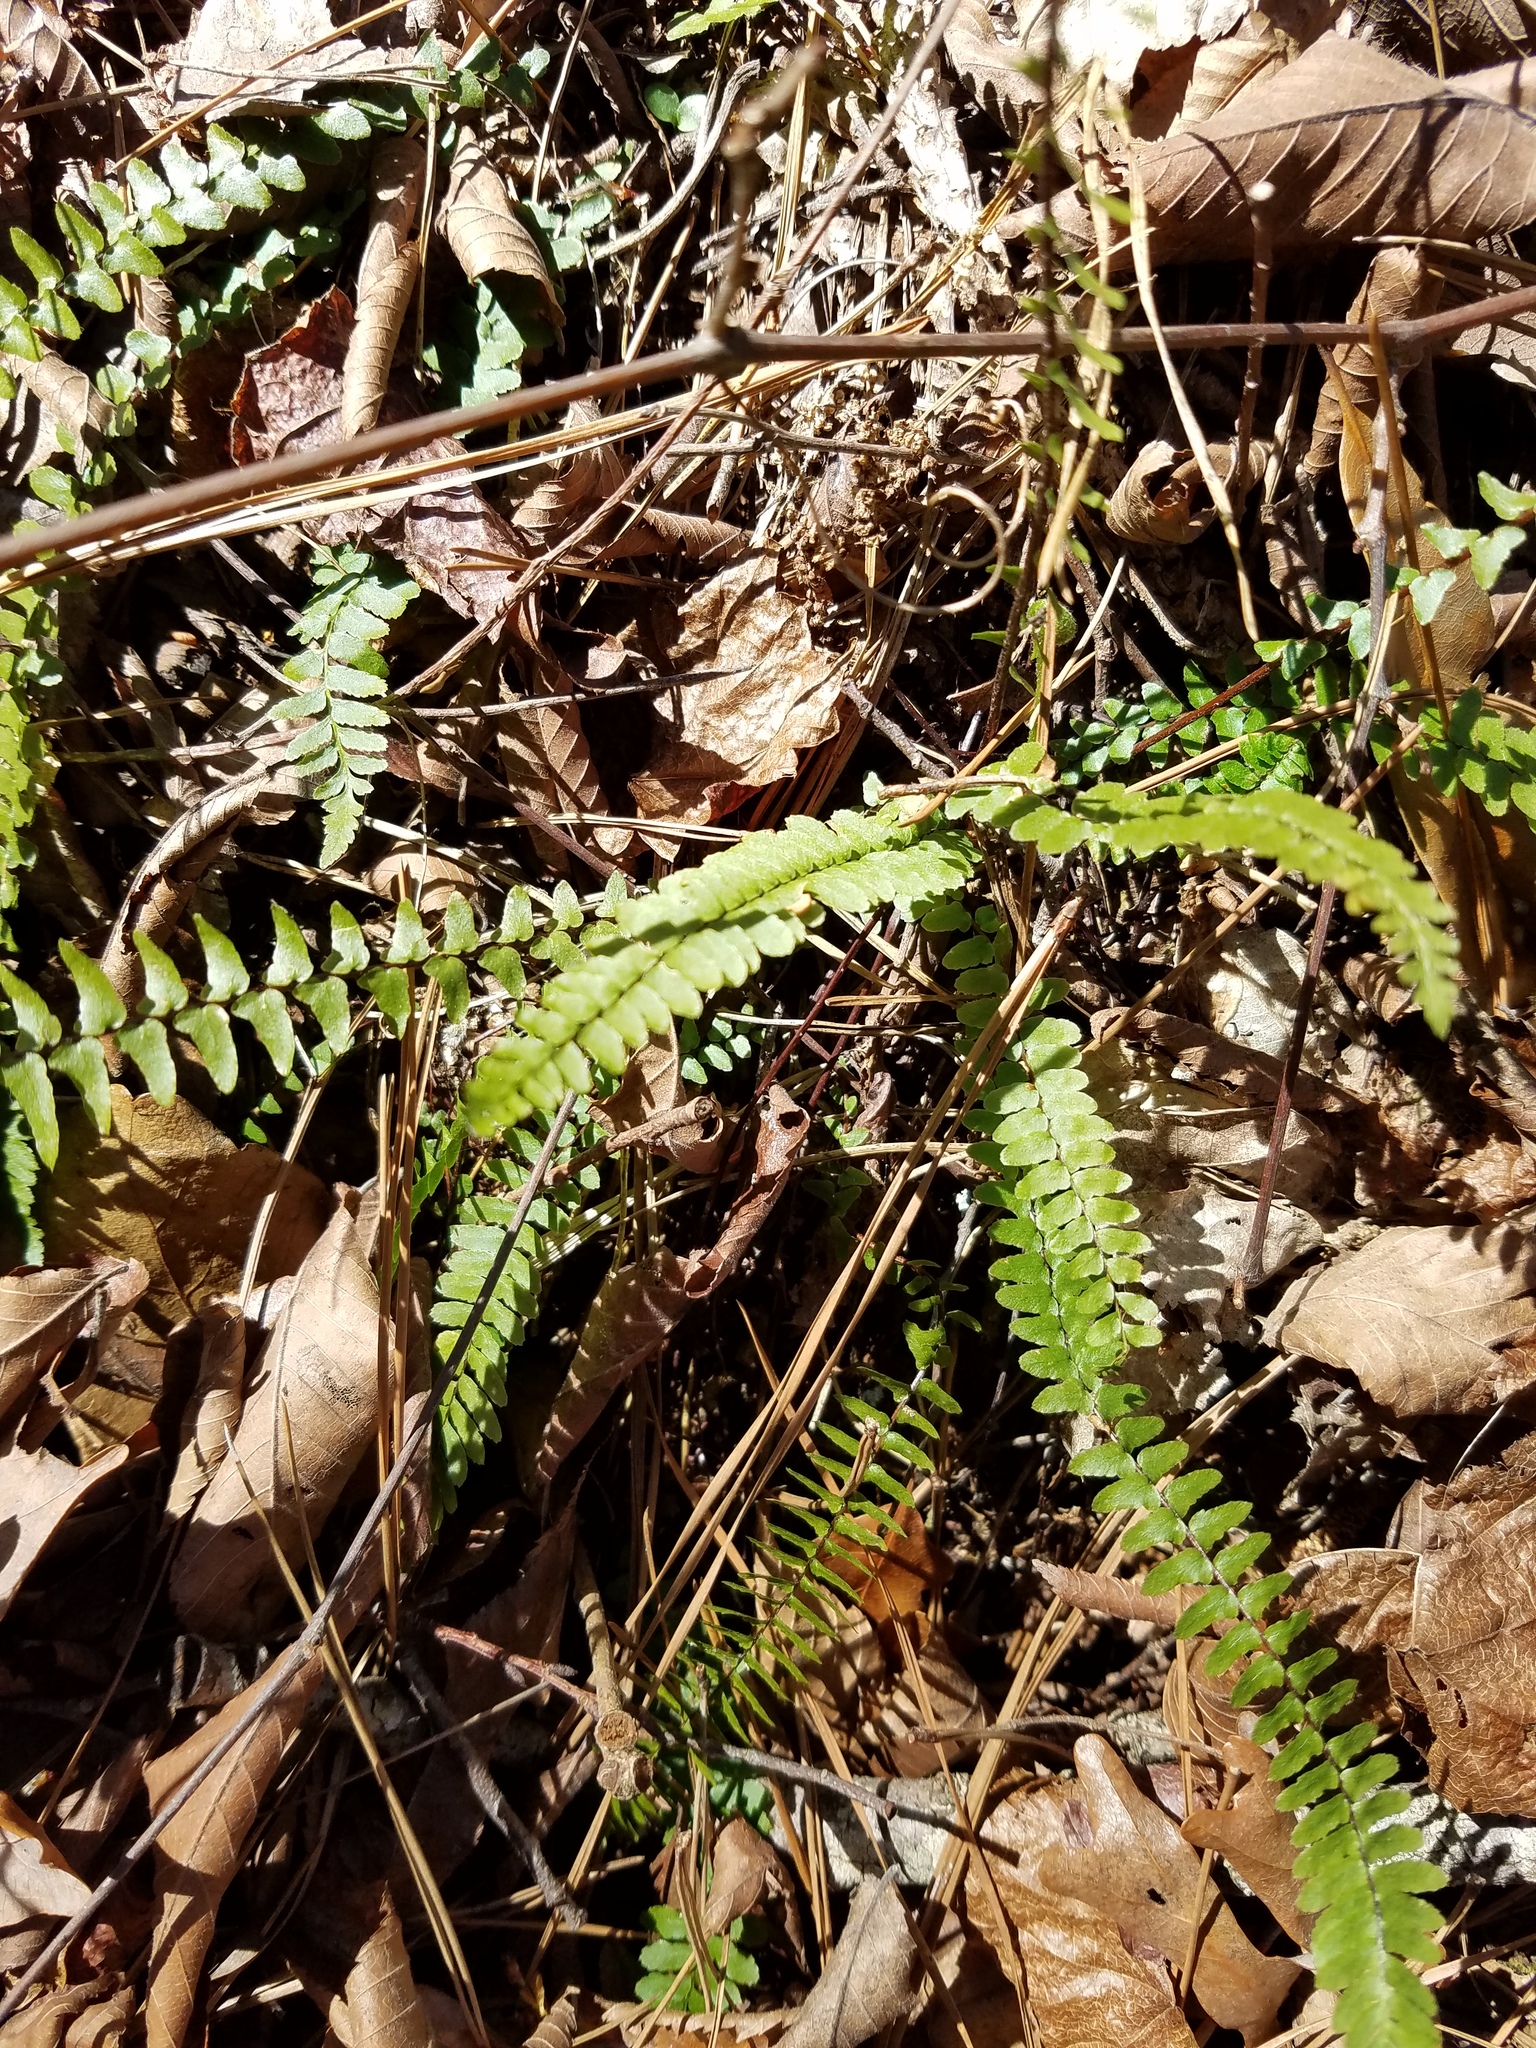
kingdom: Plantae
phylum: Tracheophyta
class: Polypodiopsida
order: Polypodiales
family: Aspleniaceae
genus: Asplenium
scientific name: Asplenium platyneuron
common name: Ebony spleenwort
